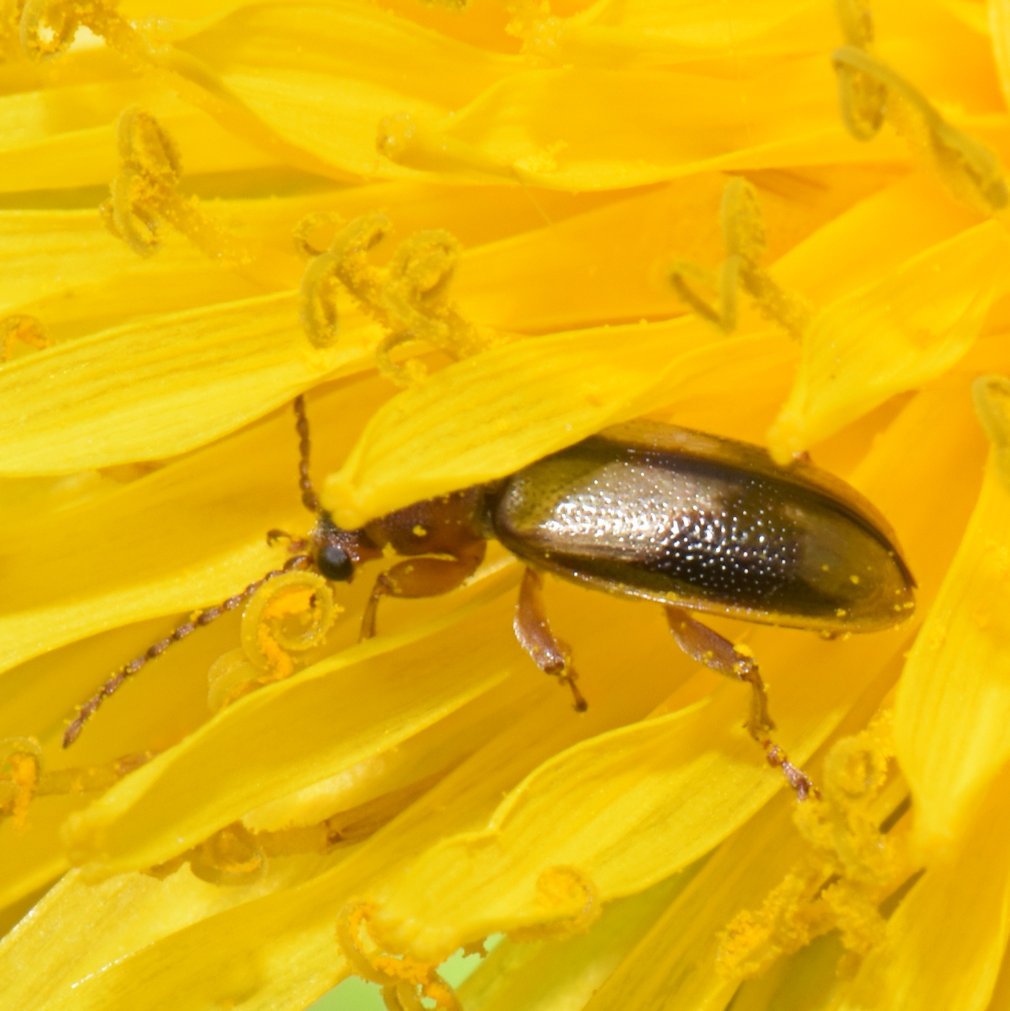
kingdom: Animalia
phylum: Arthropoda
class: Insecta
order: Coleoptera
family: Orsodacnidae
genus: Orsodacne
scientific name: Orsodacne atra
